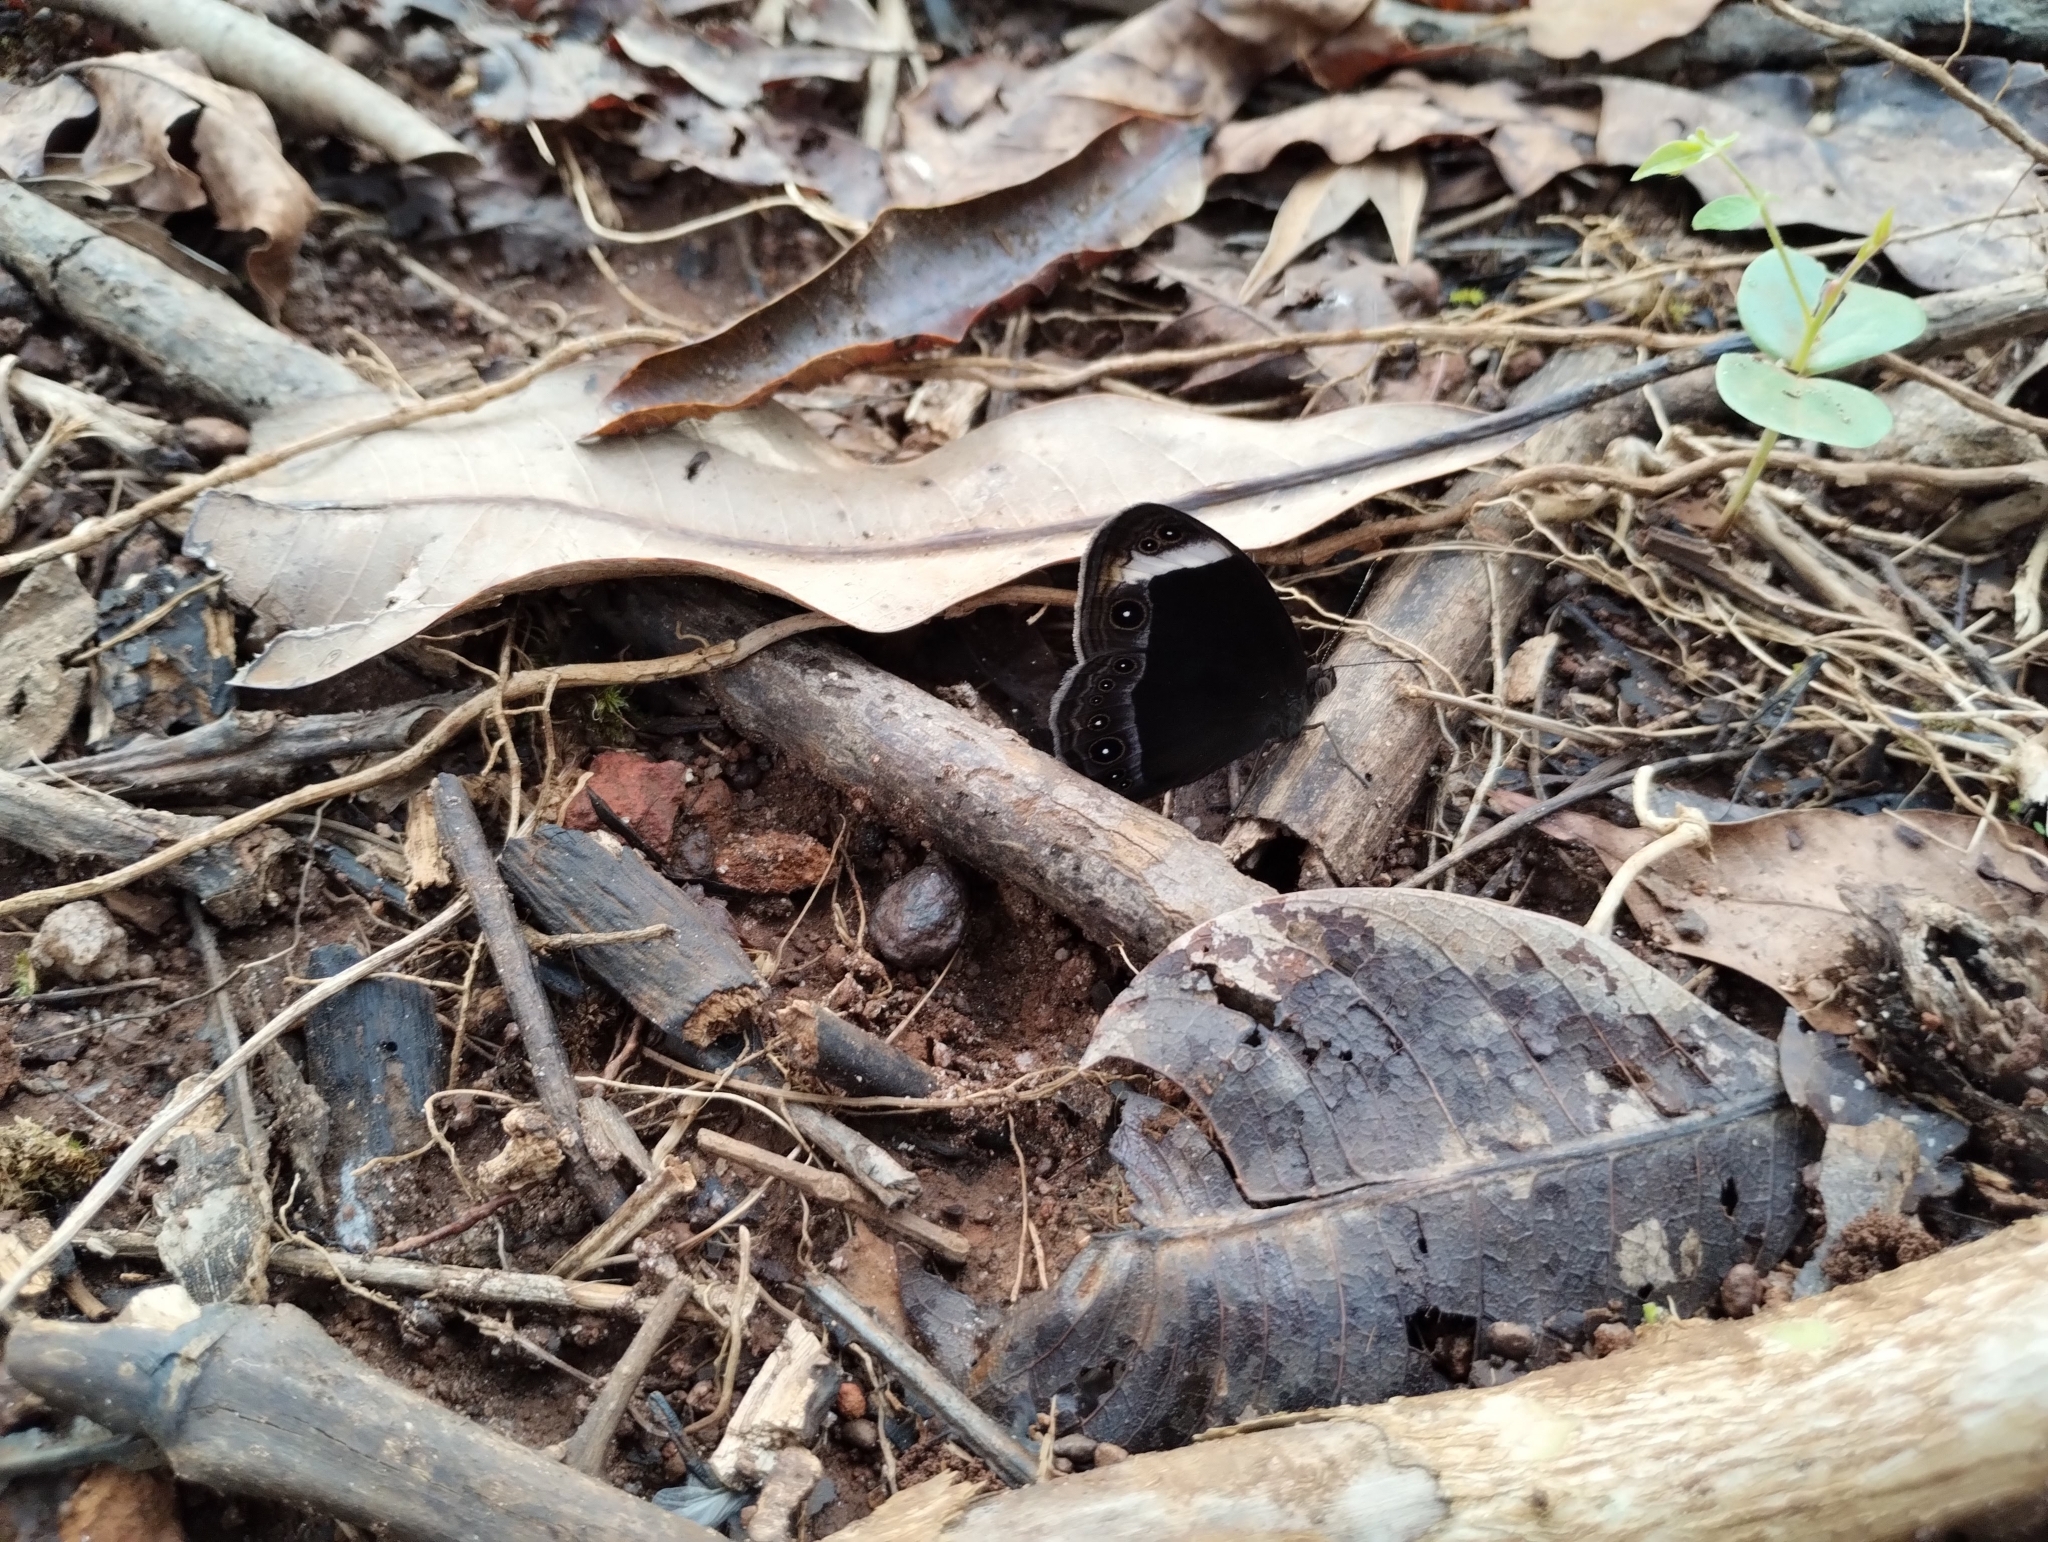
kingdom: Animalia
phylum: Arthropoda
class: Insecta
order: Lepidoptera
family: Nymphalidae
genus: Mycalesis
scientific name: Mycalesis anaxias
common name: White-bar bushbrown
